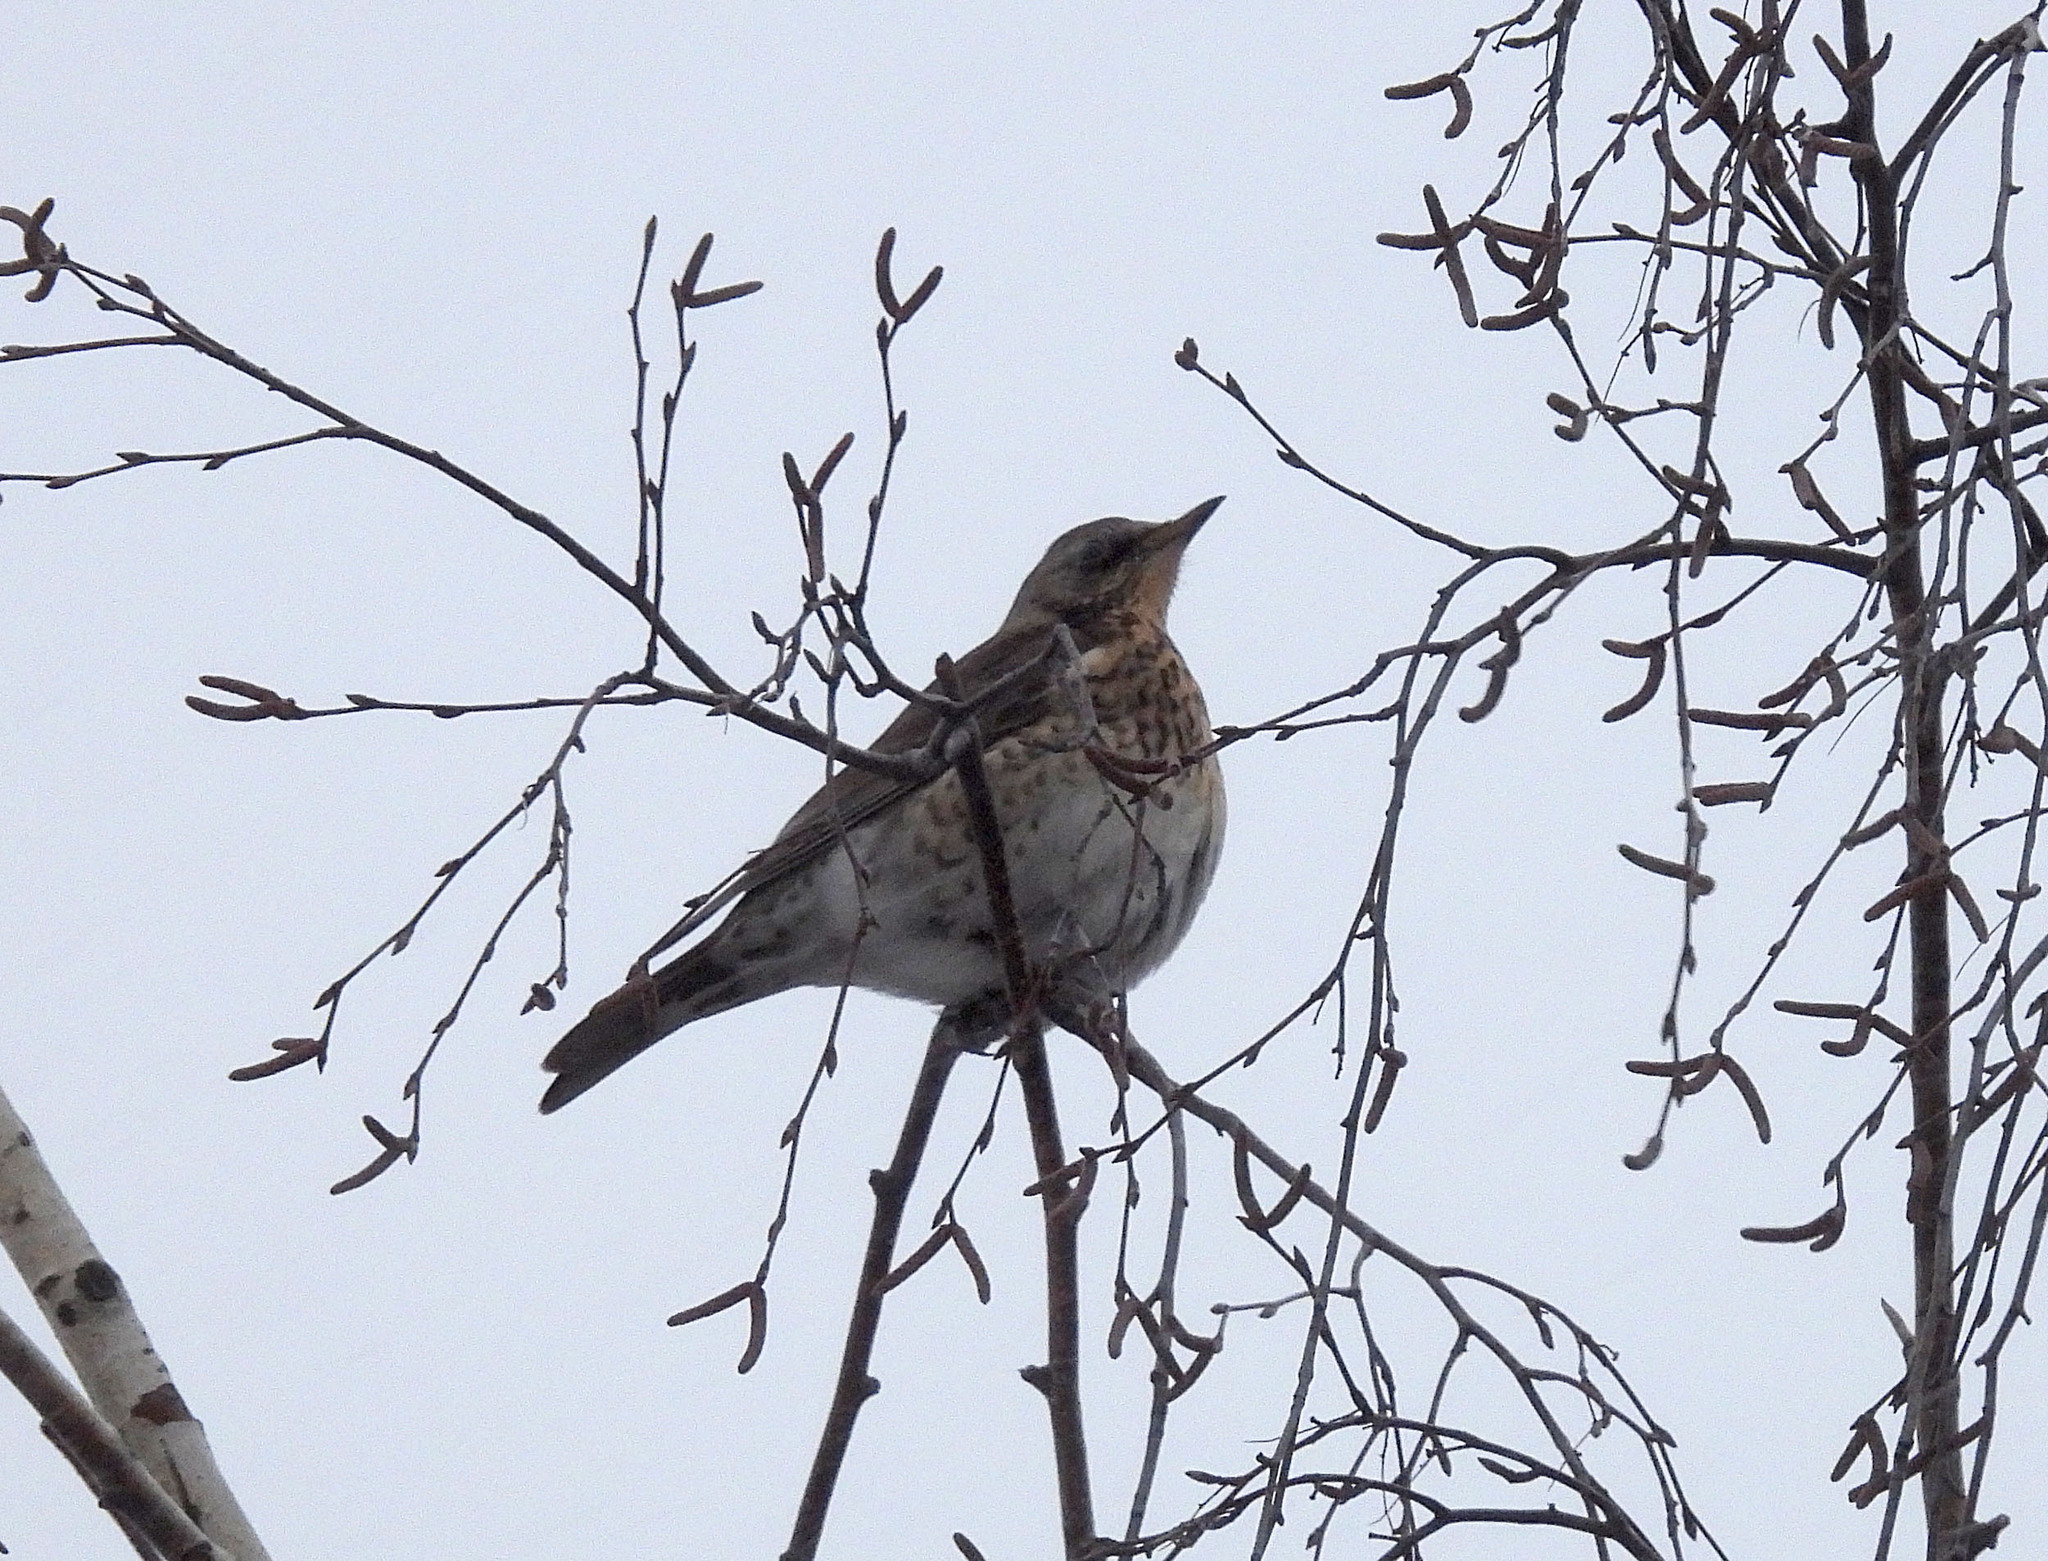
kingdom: Animalia
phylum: Chordata
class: Aves
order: Passeriformes
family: Turdidae
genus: Turdus
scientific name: Turdus pilaris
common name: Fieldfare
